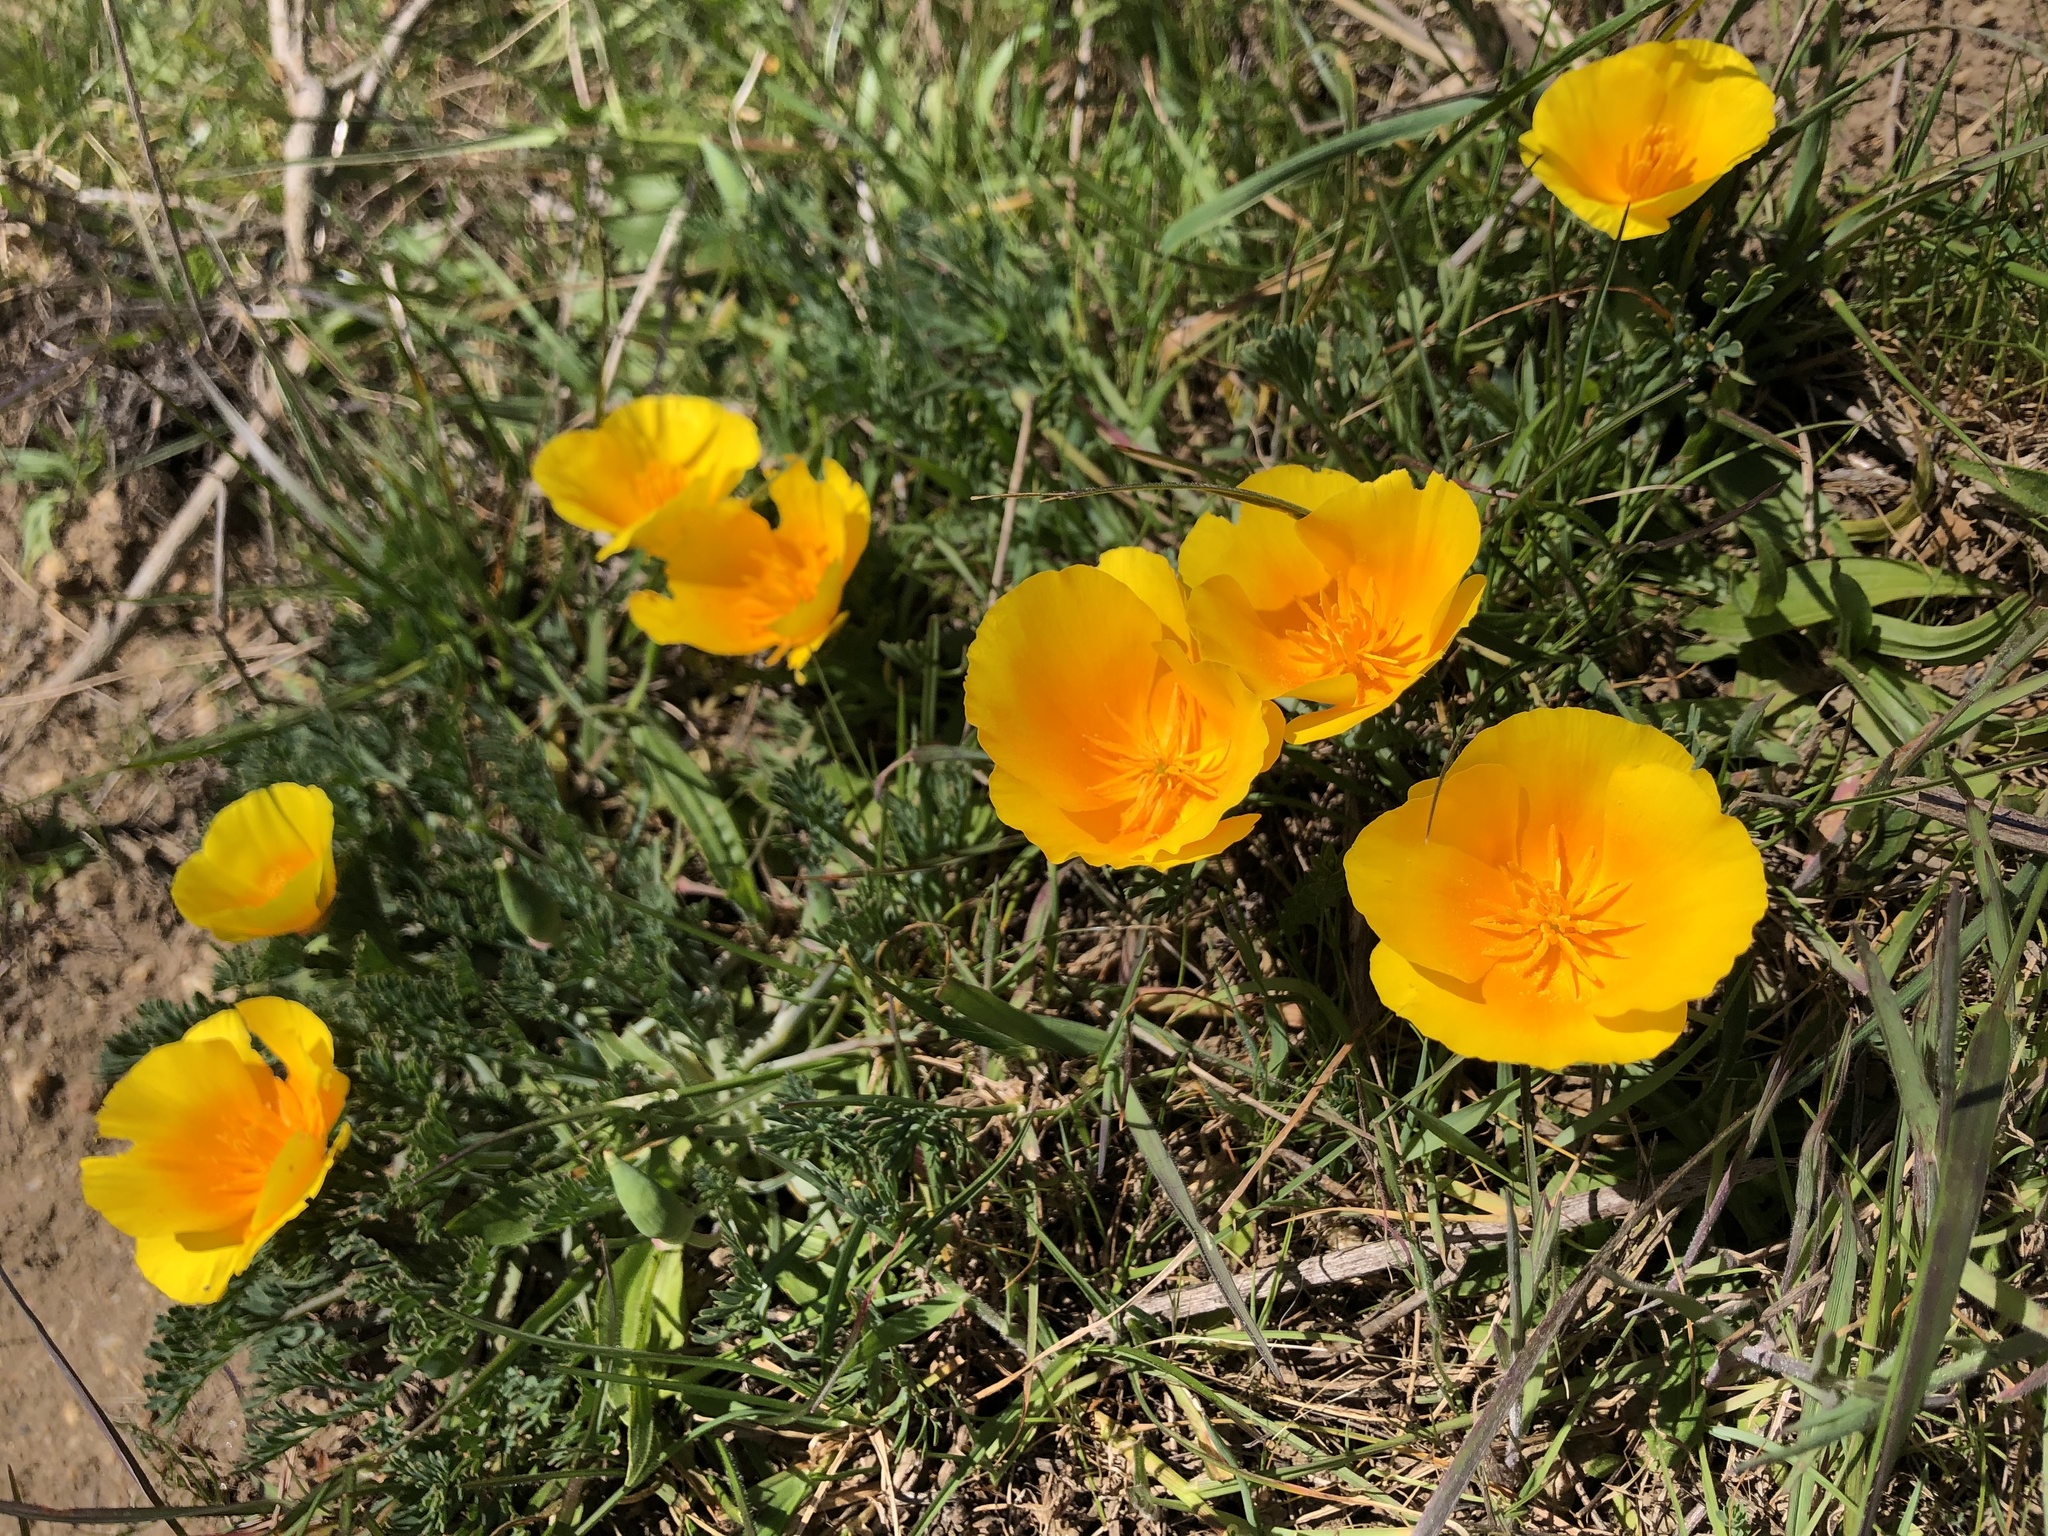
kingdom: Plantae
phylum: Tracheophyta
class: Magnoliopsida
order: Ranunculales
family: Papaveraceae
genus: Eschscholzia
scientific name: Eschscholzia californica
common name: California poppy
